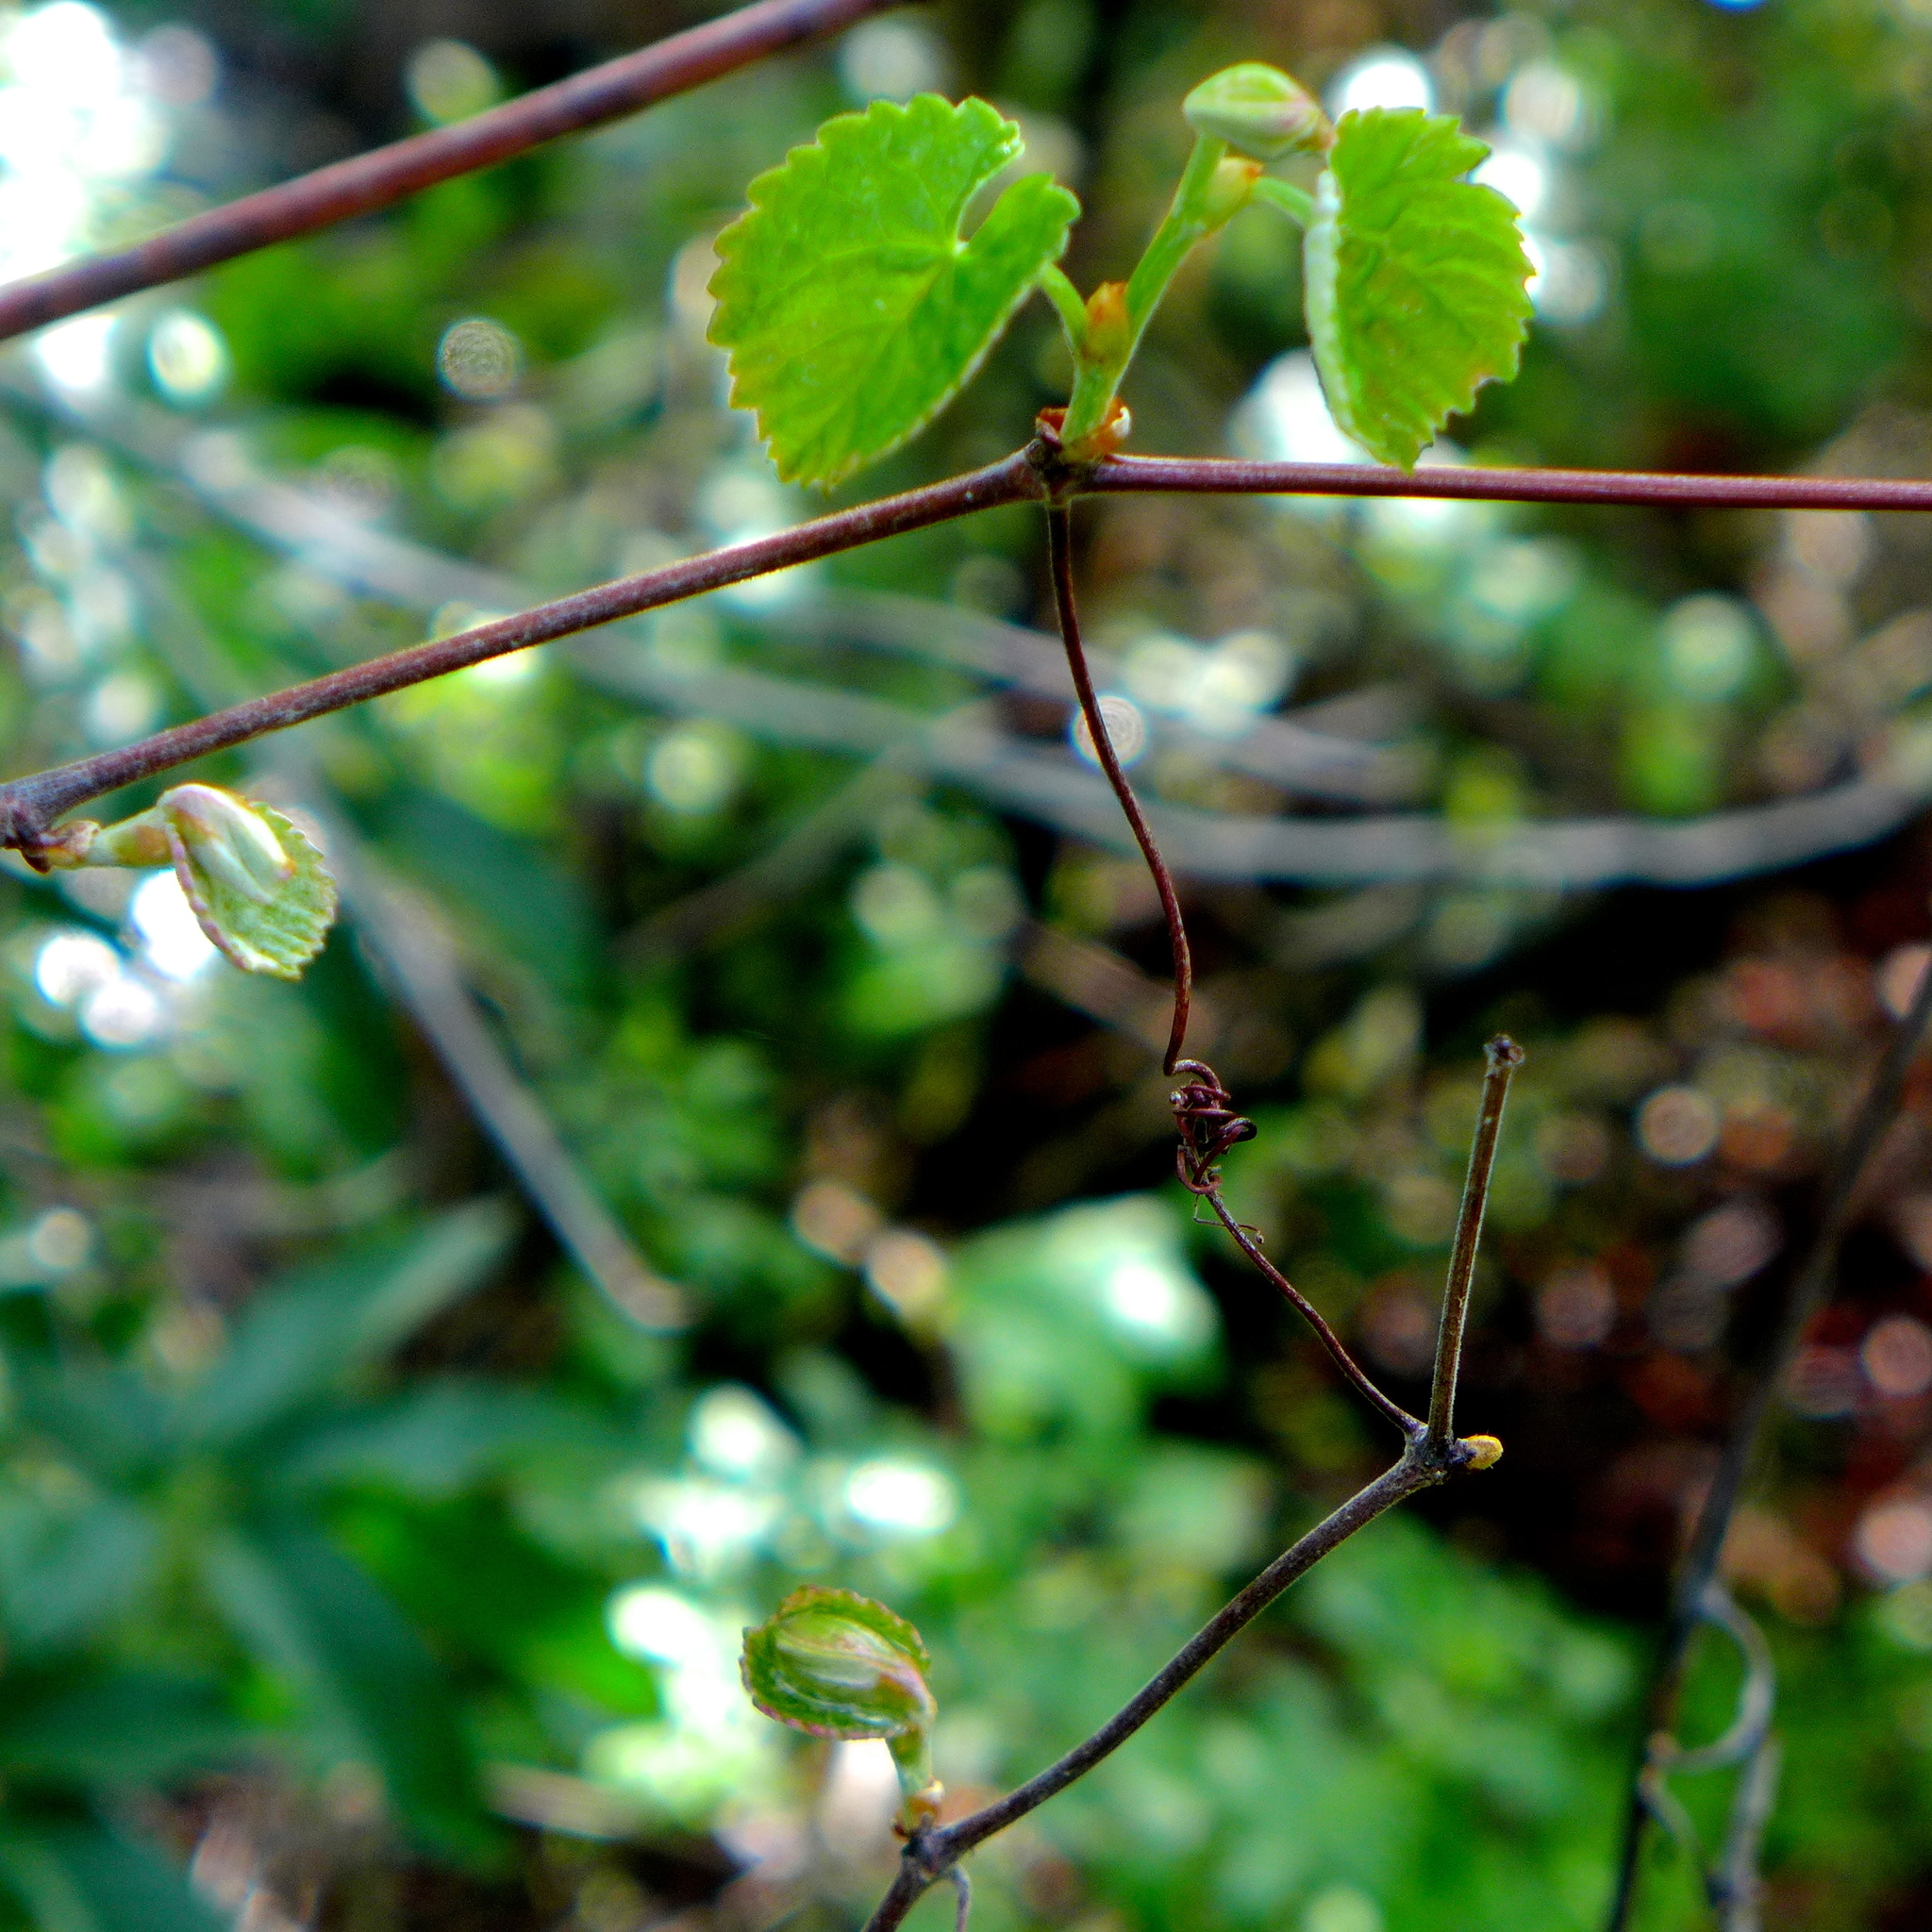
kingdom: Plantae
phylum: Tracheophyta
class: Magnoliopsida
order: Vitales
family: Vitaceae
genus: Vitis
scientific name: Vitis californica
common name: California wild grape
